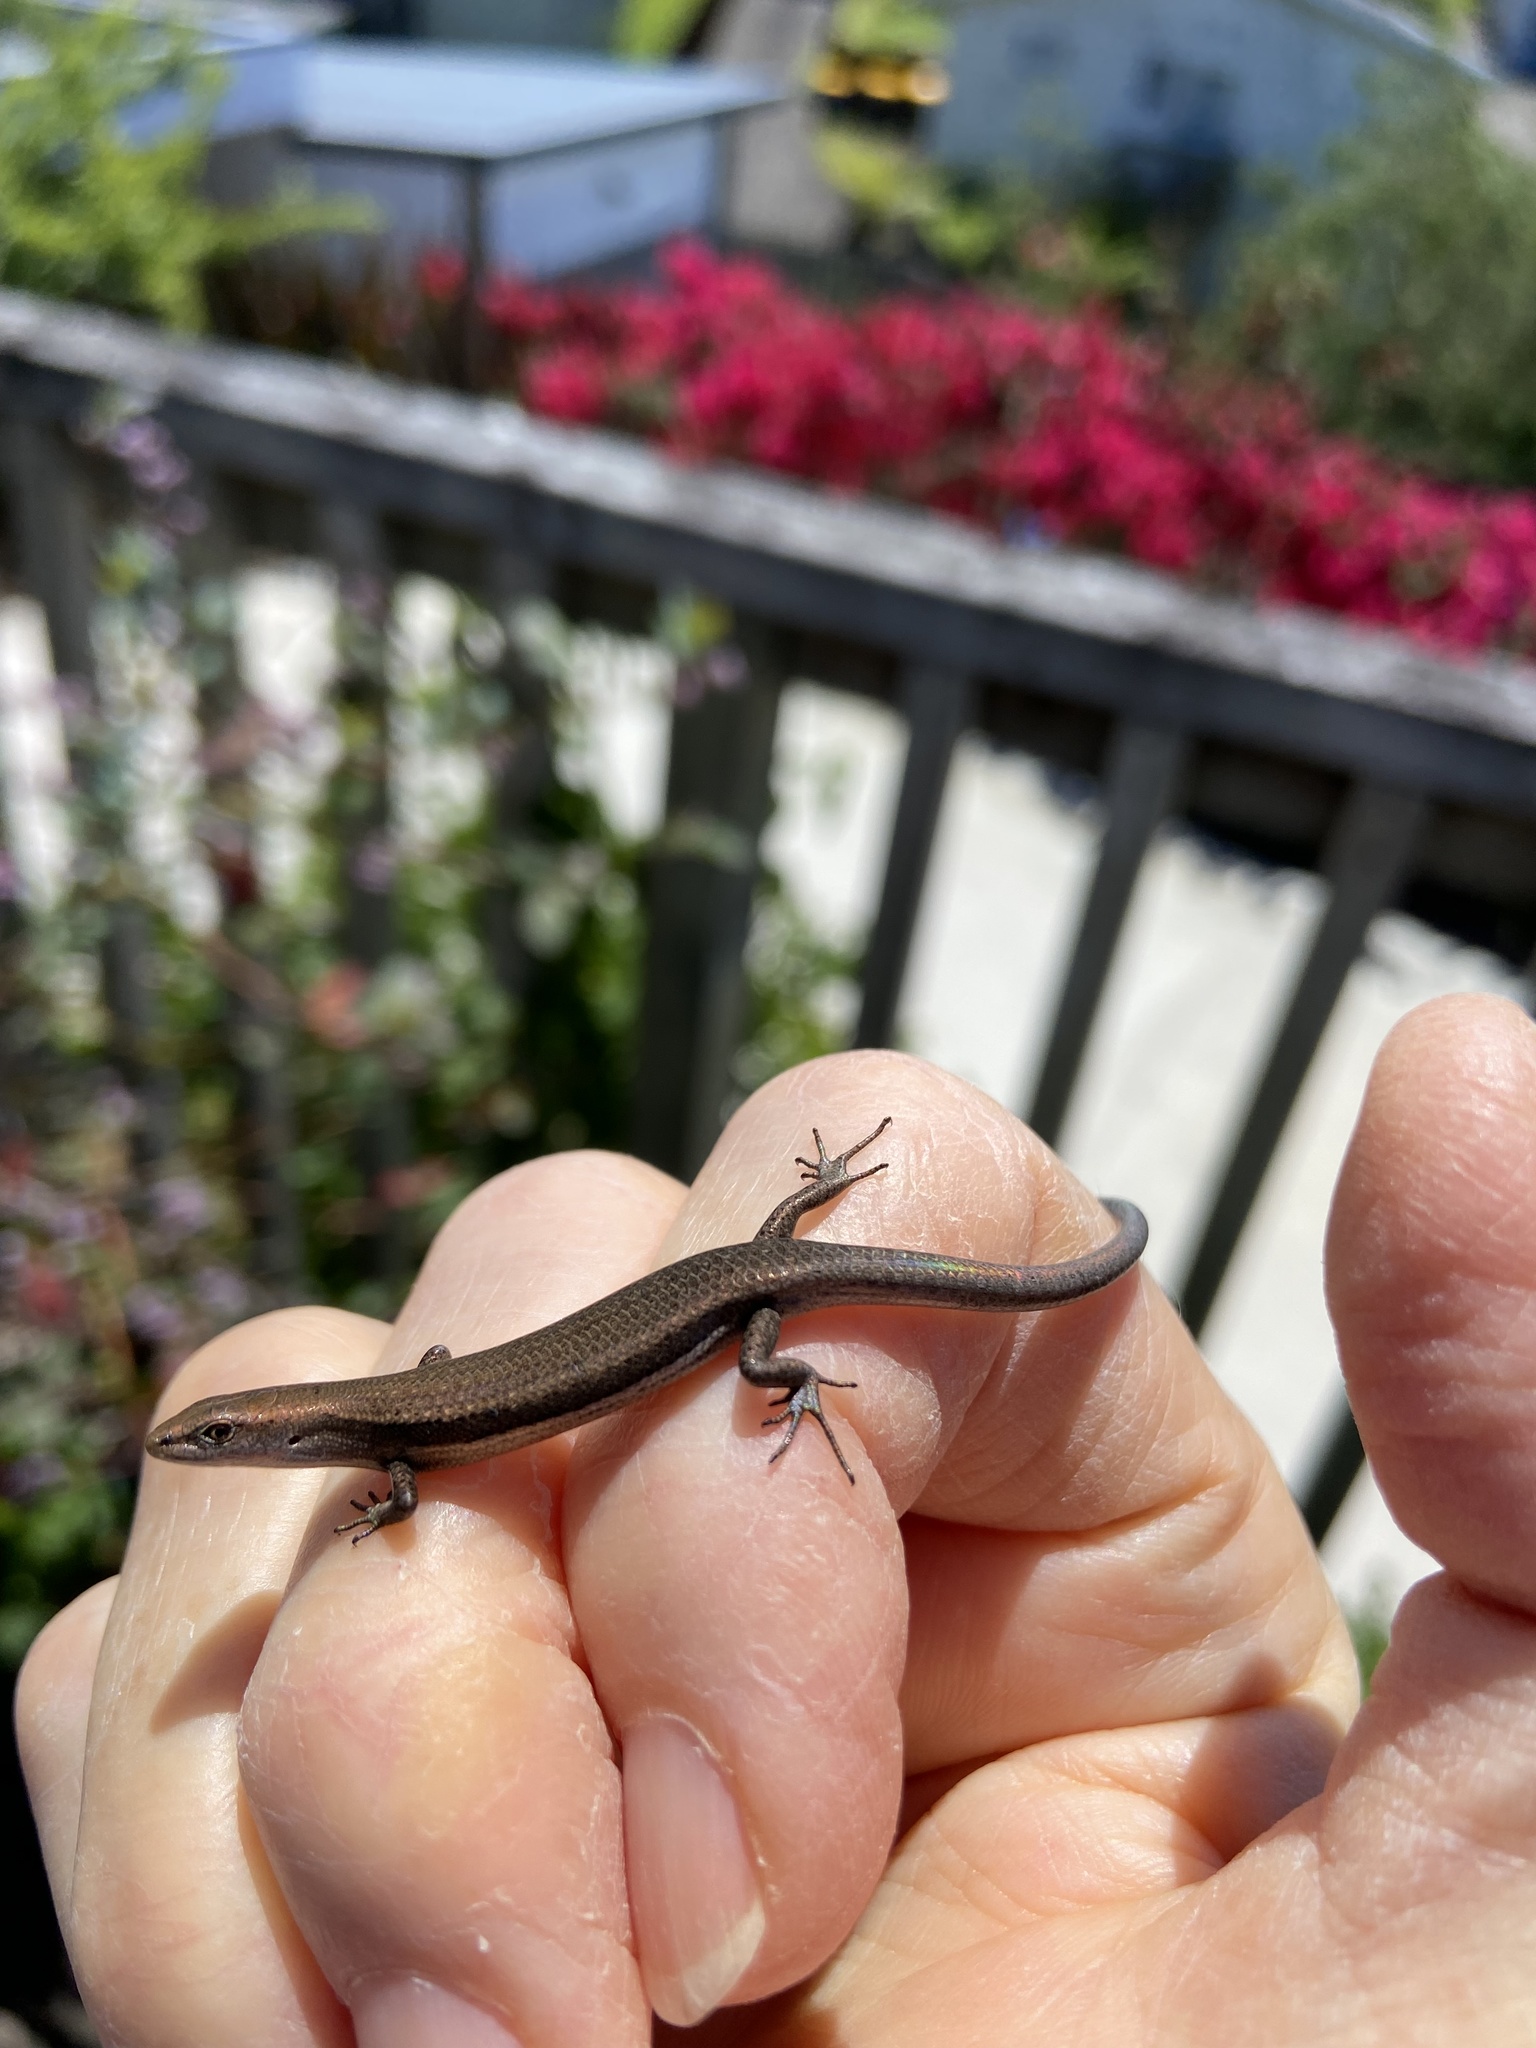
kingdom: Animalia
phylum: Chordata
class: Squamata
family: Scincidae
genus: Lampropholis
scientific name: Lampropholis delicata
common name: Plague skink
